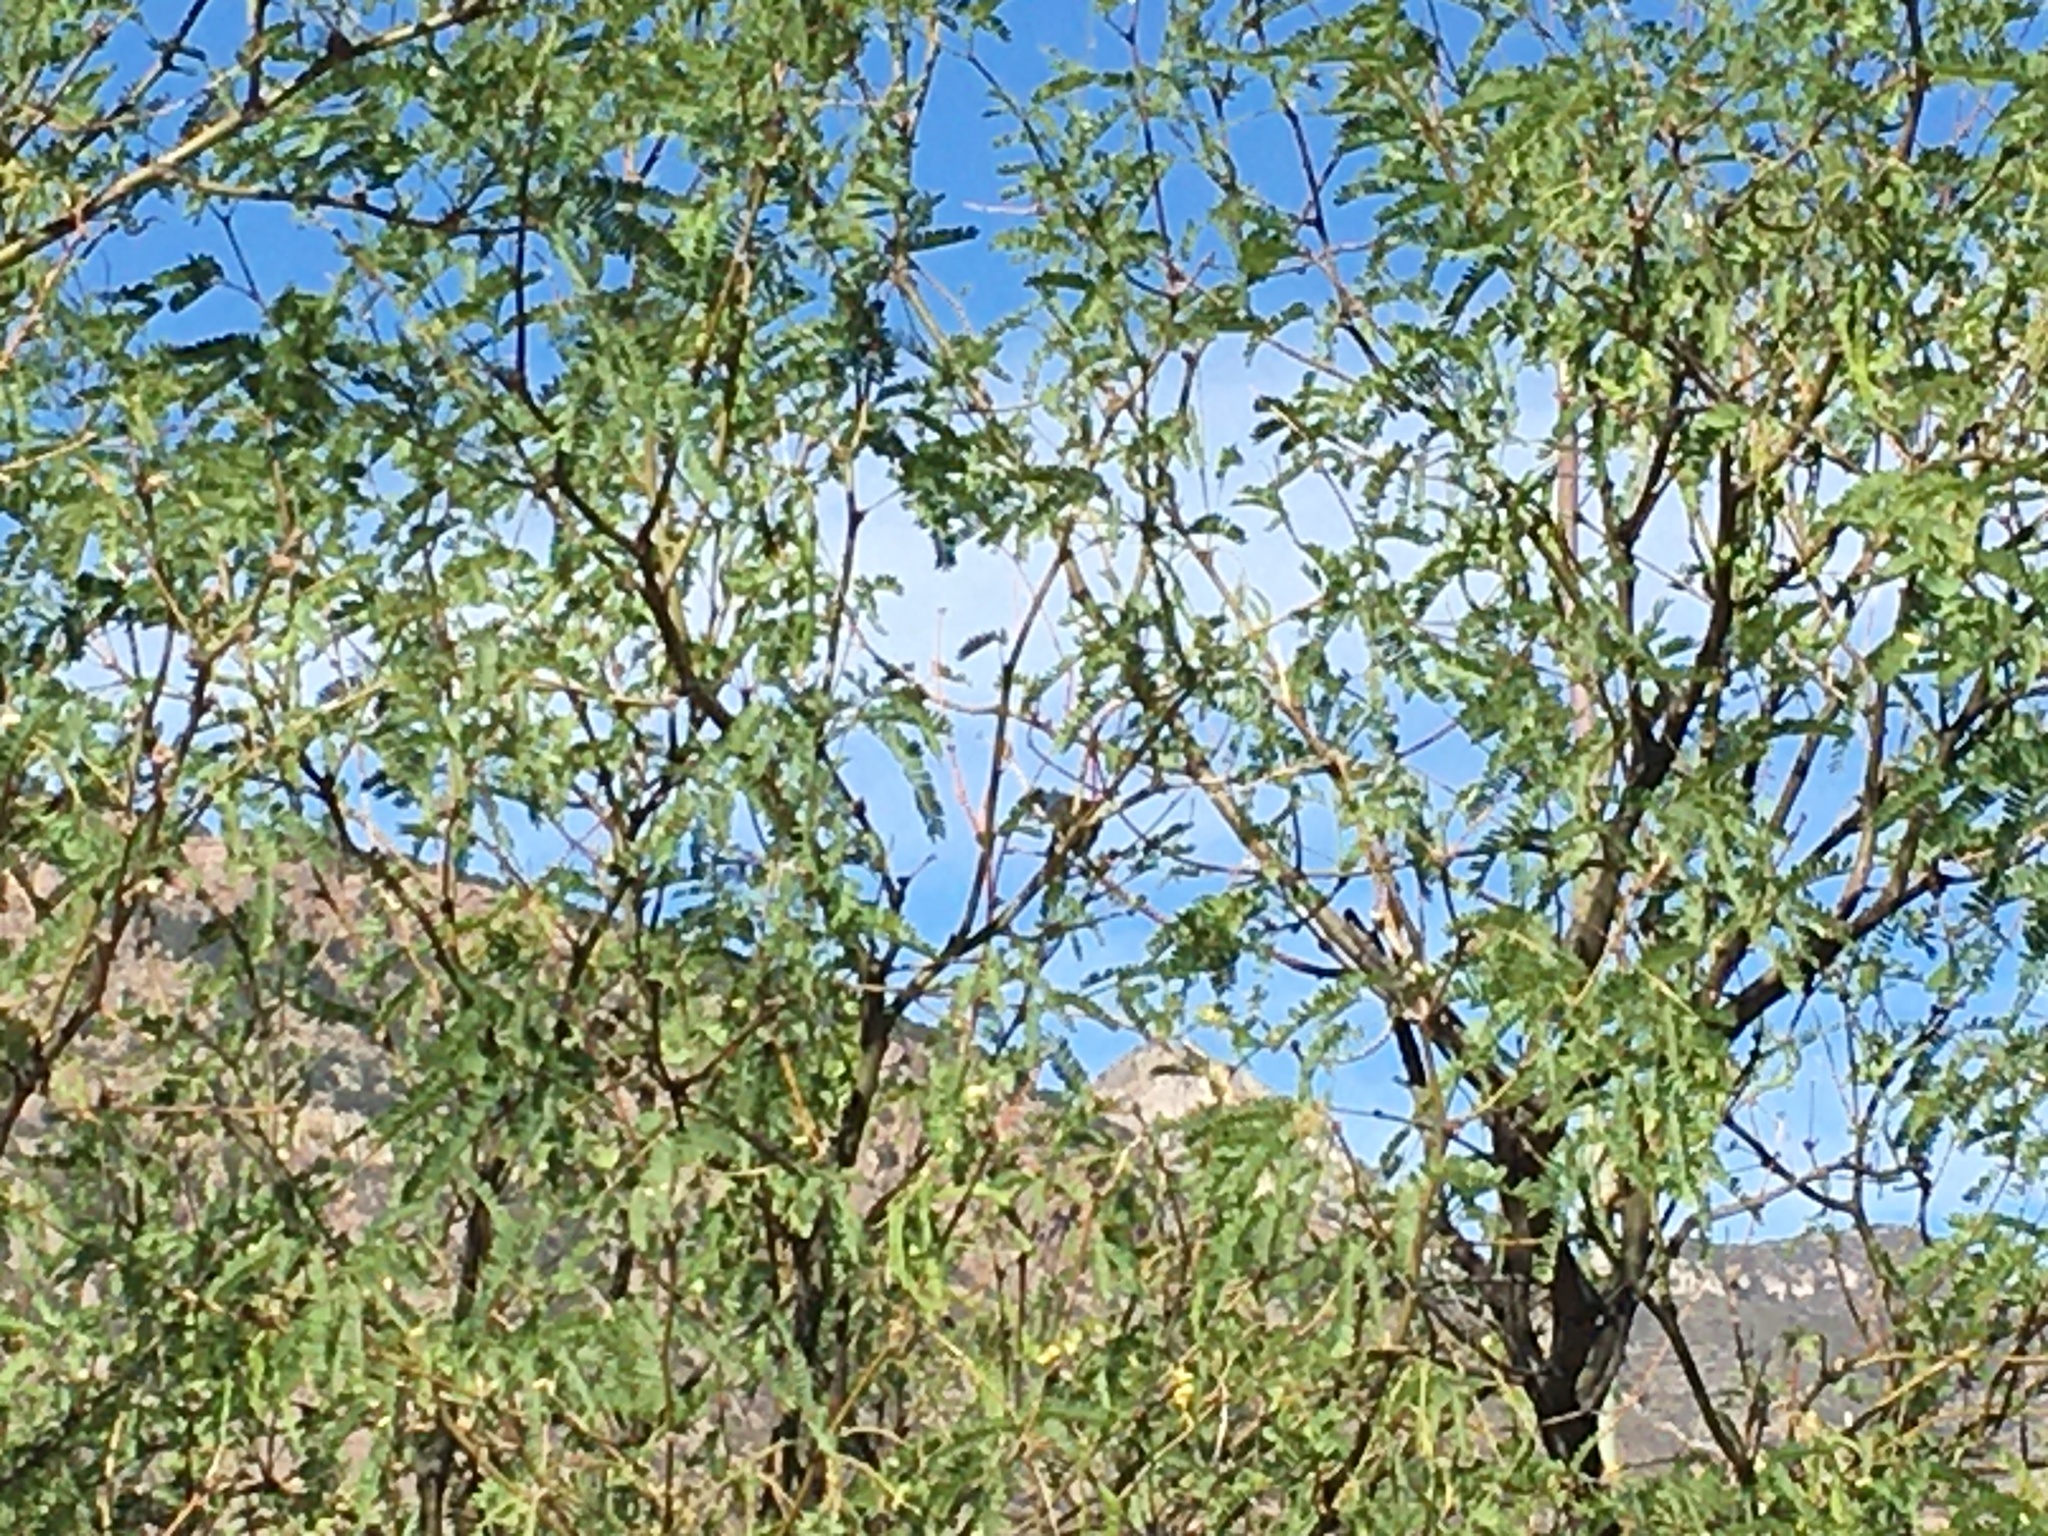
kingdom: Animalia
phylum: Chordata
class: Aves
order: Passeriformes
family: Cardinalidae
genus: Passerina
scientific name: Passerina caerulea
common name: Blue grosbeak
